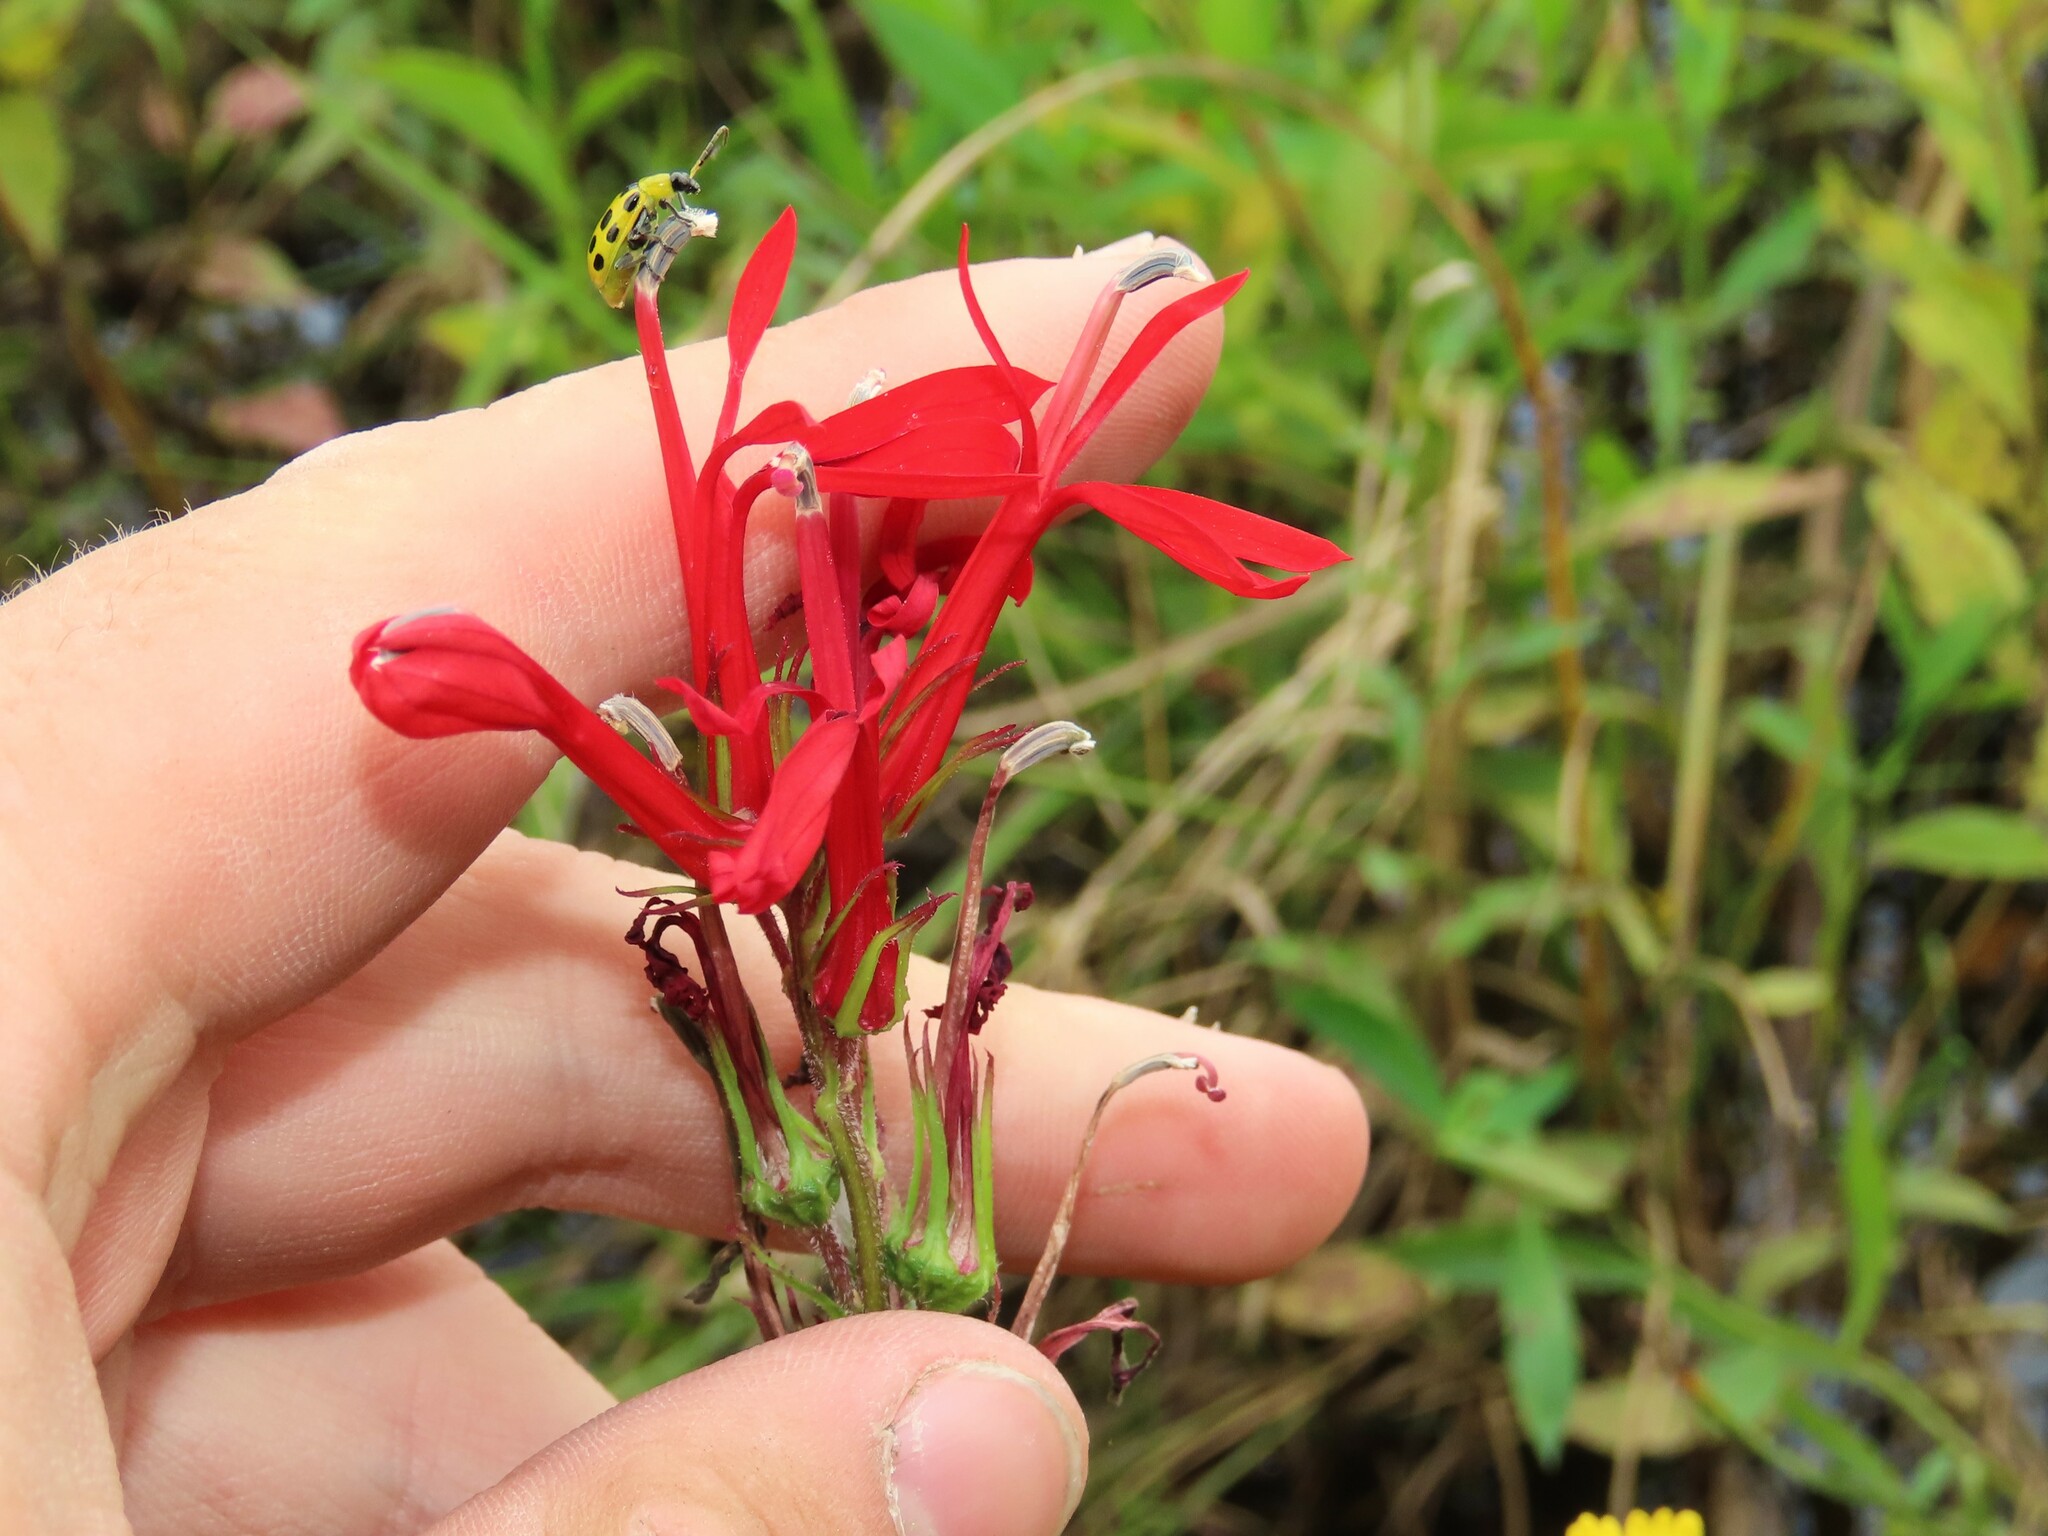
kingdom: Plantae
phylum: Tracheophyta
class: Magnoliopsida
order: Asterales
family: Campanulaceae
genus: Lobelia
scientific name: Lobelia cardinalis
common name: Cardinal flower
